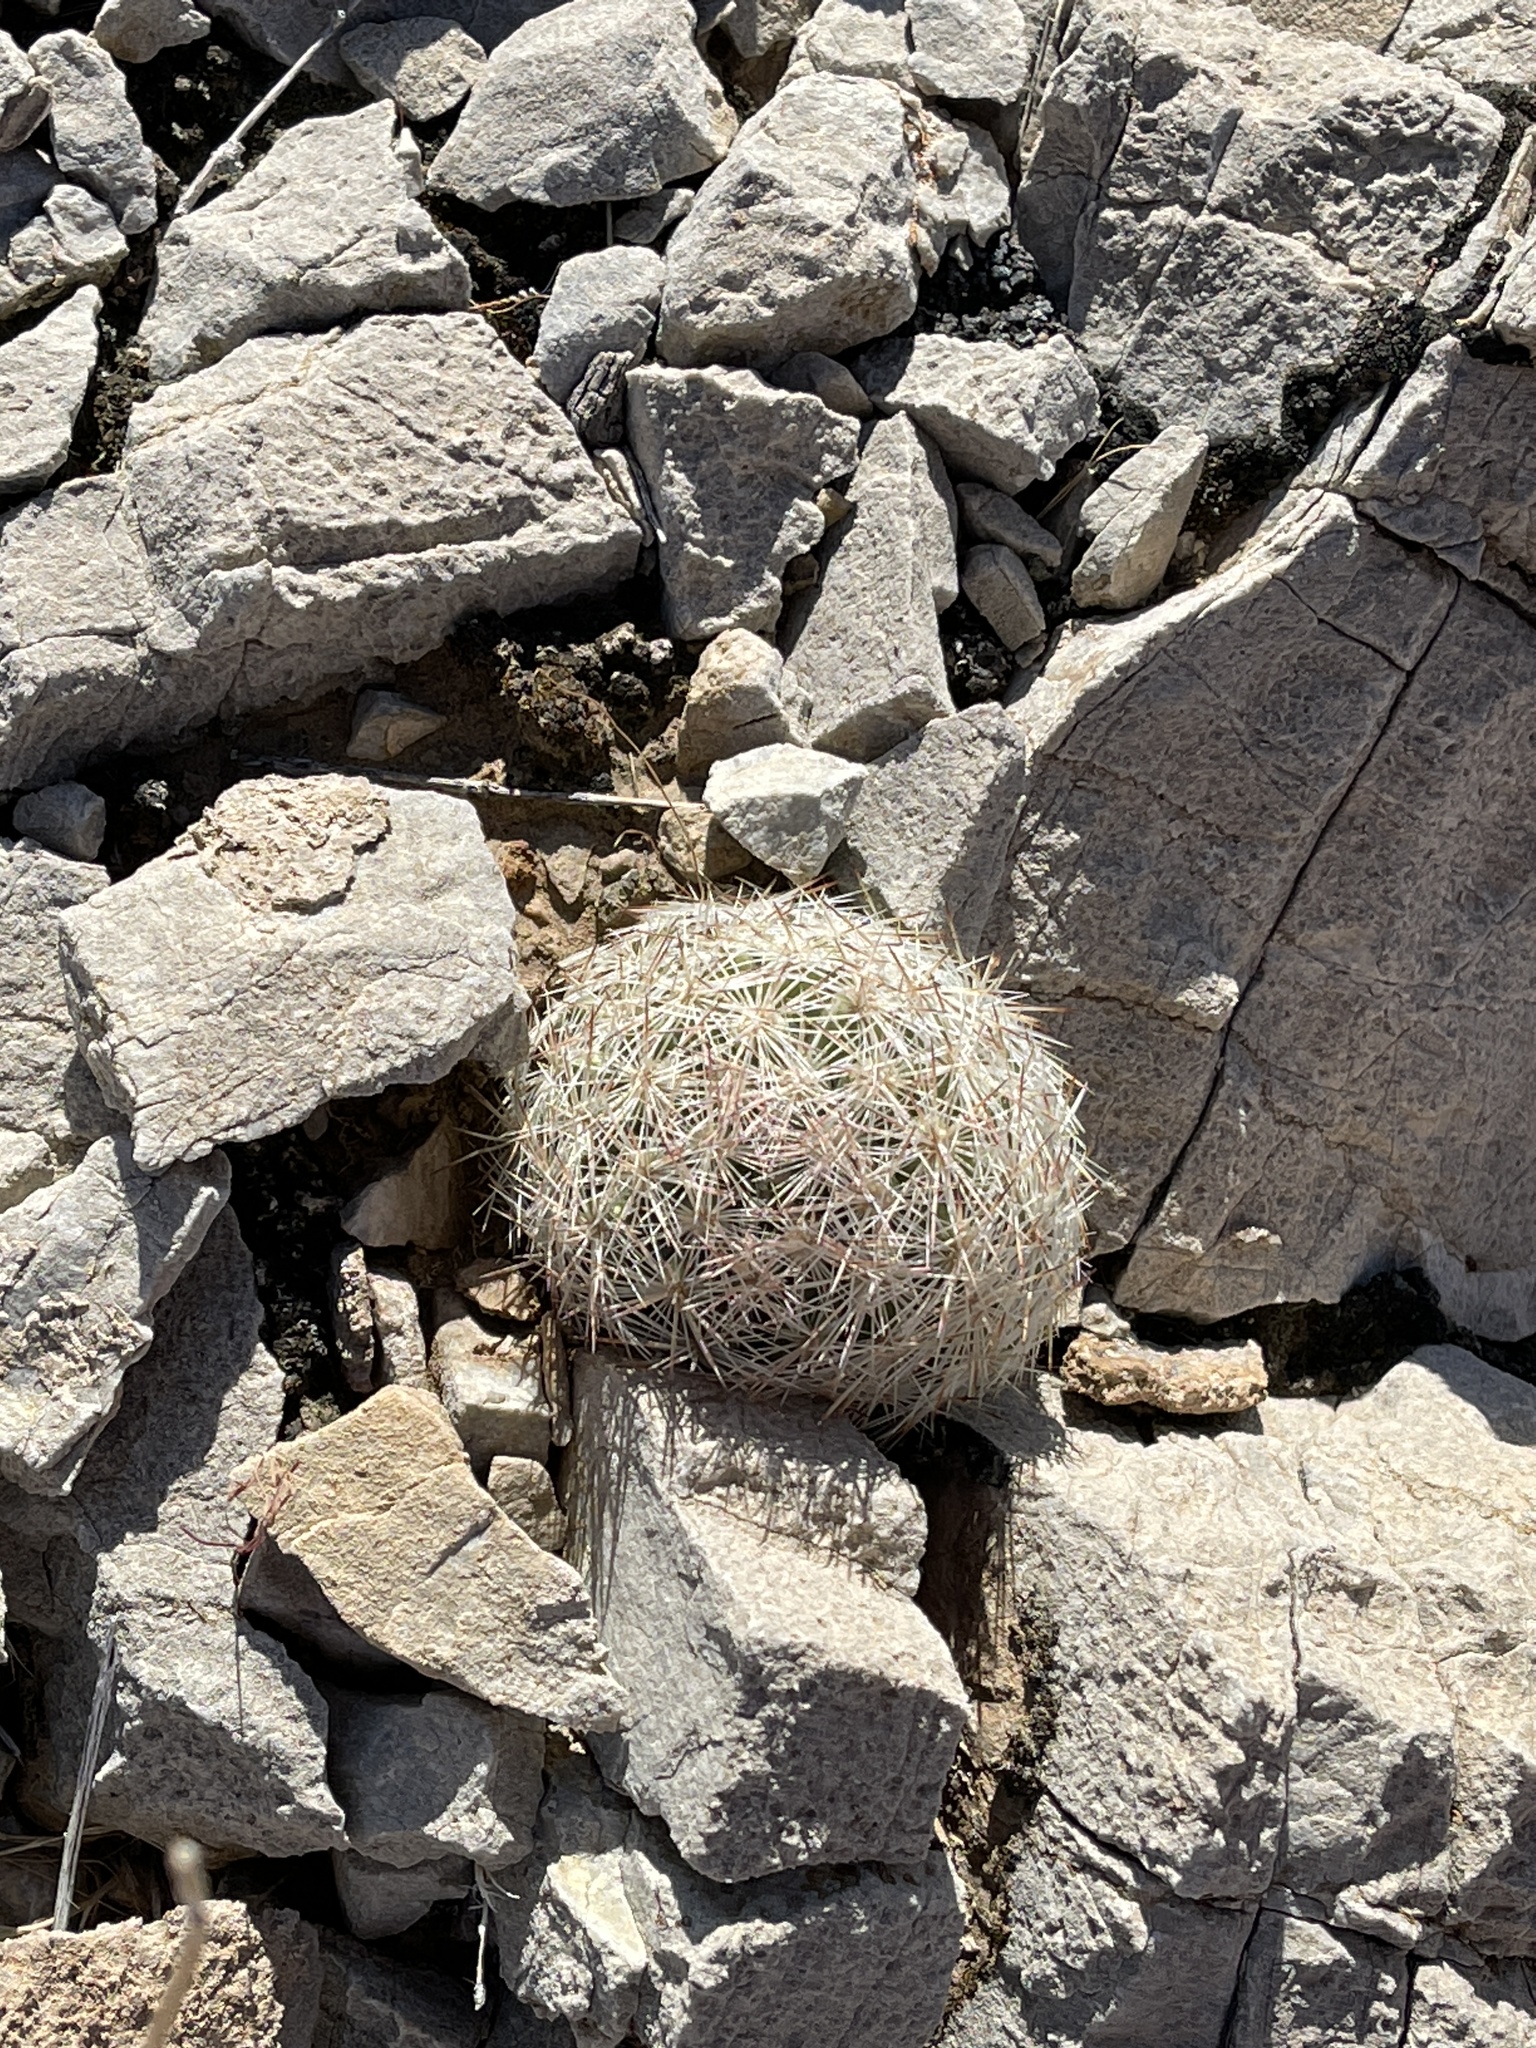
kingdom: Plantae
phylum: Tracheophyta
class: Magnoliopsida
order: Caryophyllales
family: Cactaceae
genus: Pelecyphora
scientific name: Pelecyphora dasyacantha
